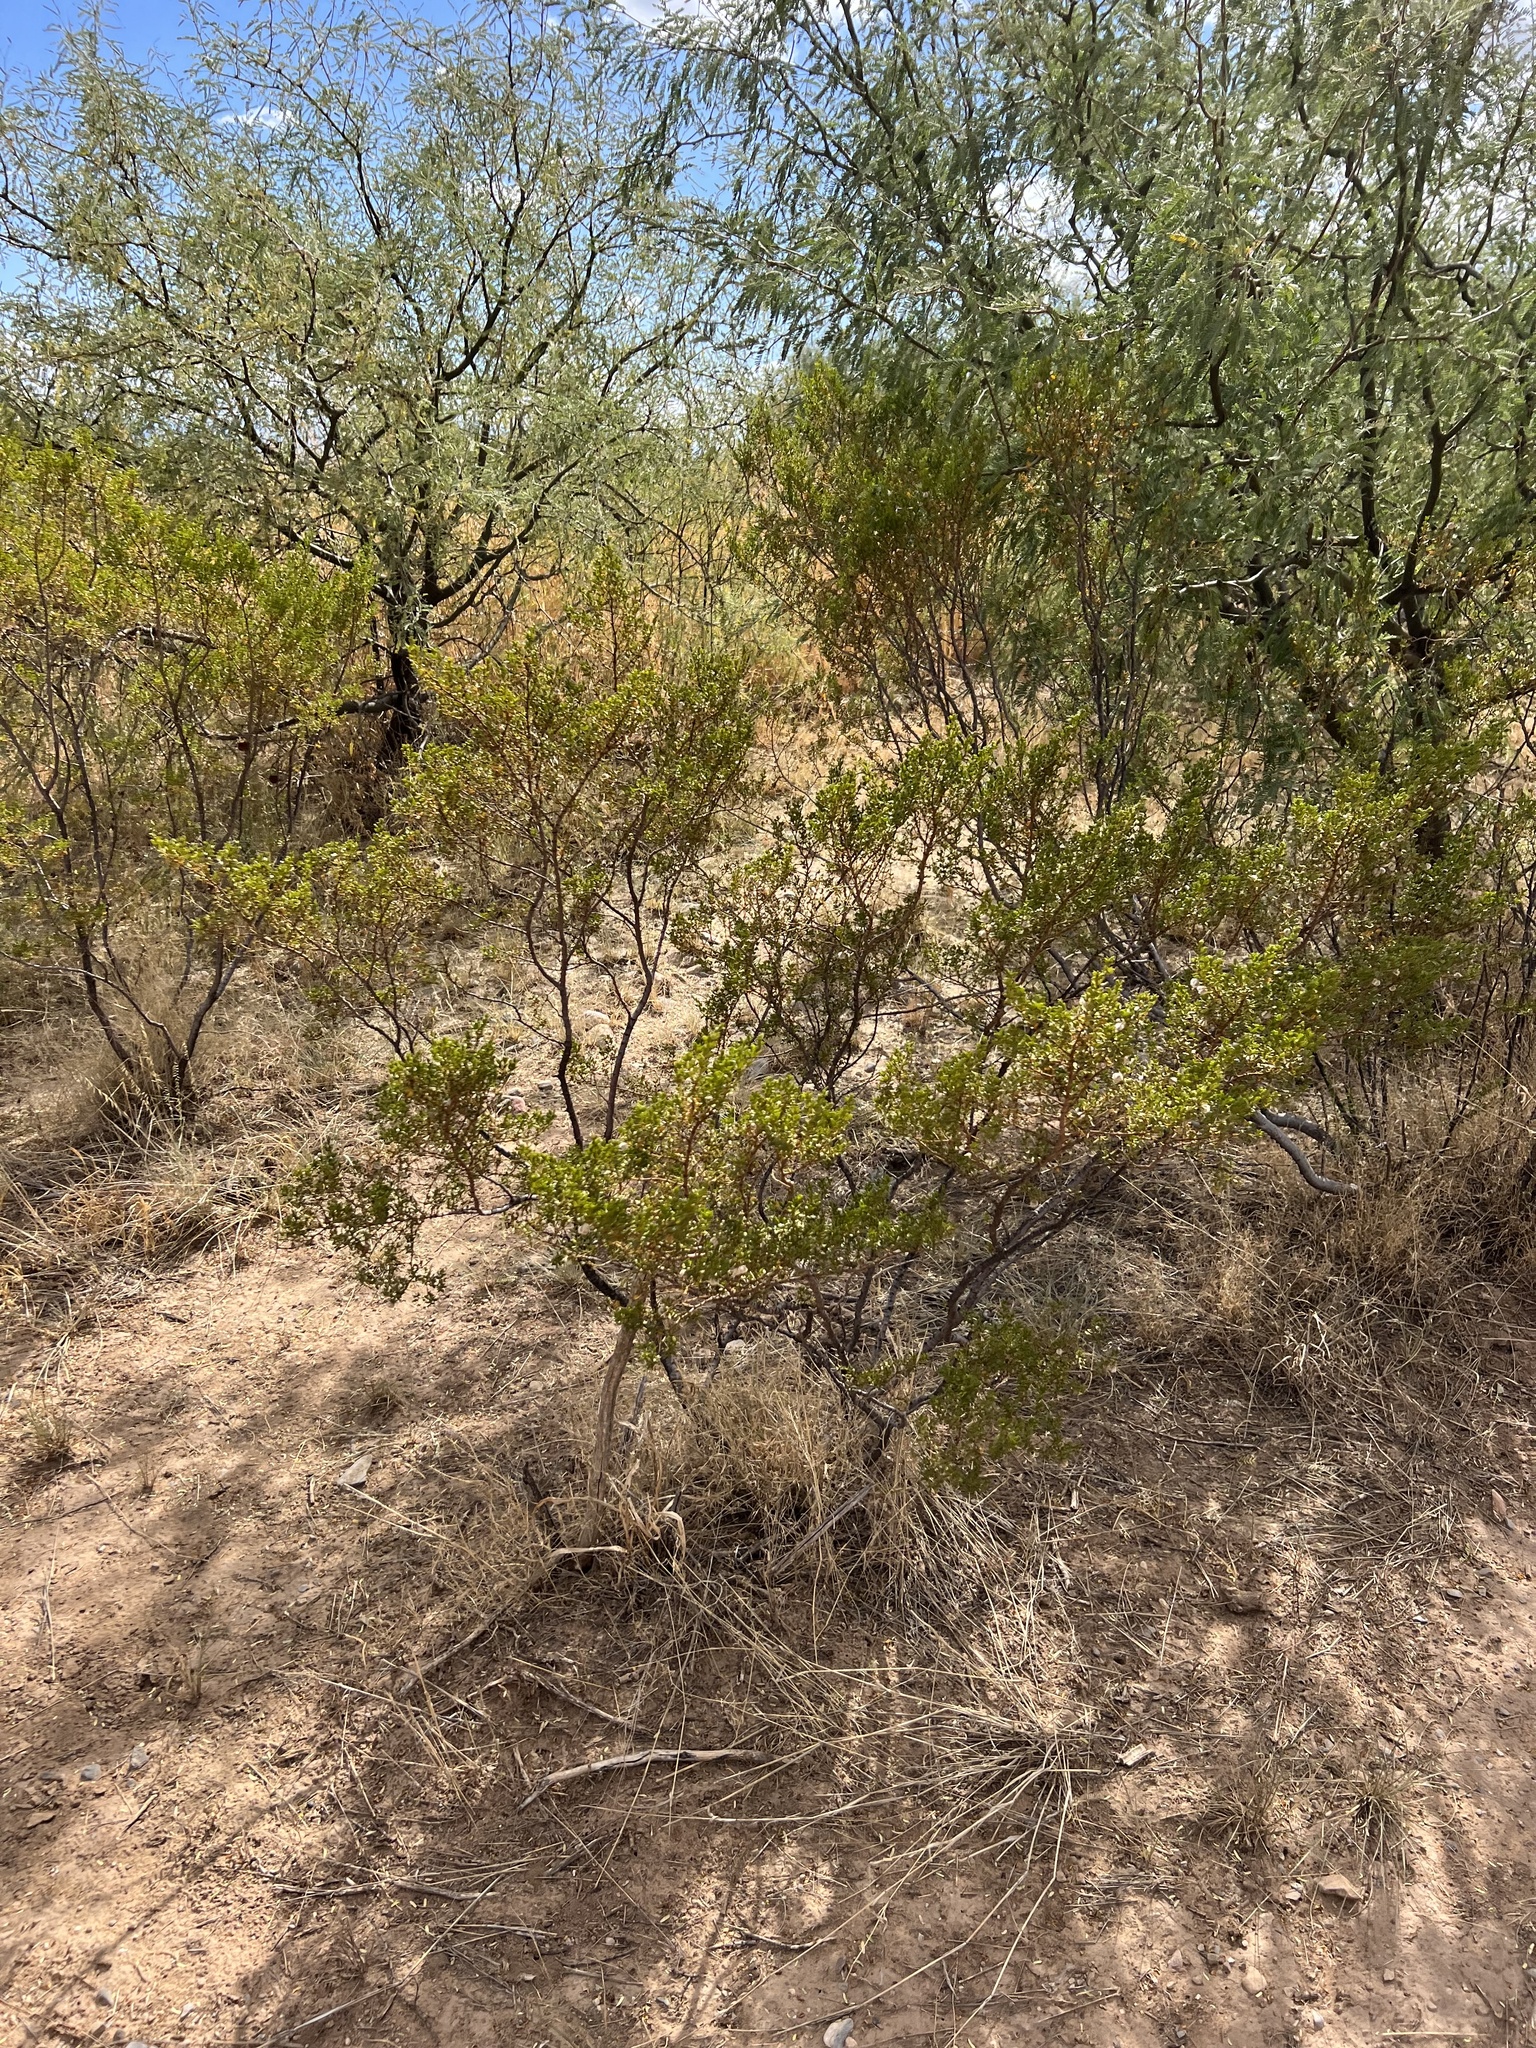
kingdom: Plantae
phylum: Tracheophyta
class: Magnoliopsida
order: Zygophyllales
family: Zygophyllaceae
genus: Larrea
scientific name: Larrea tridentata
